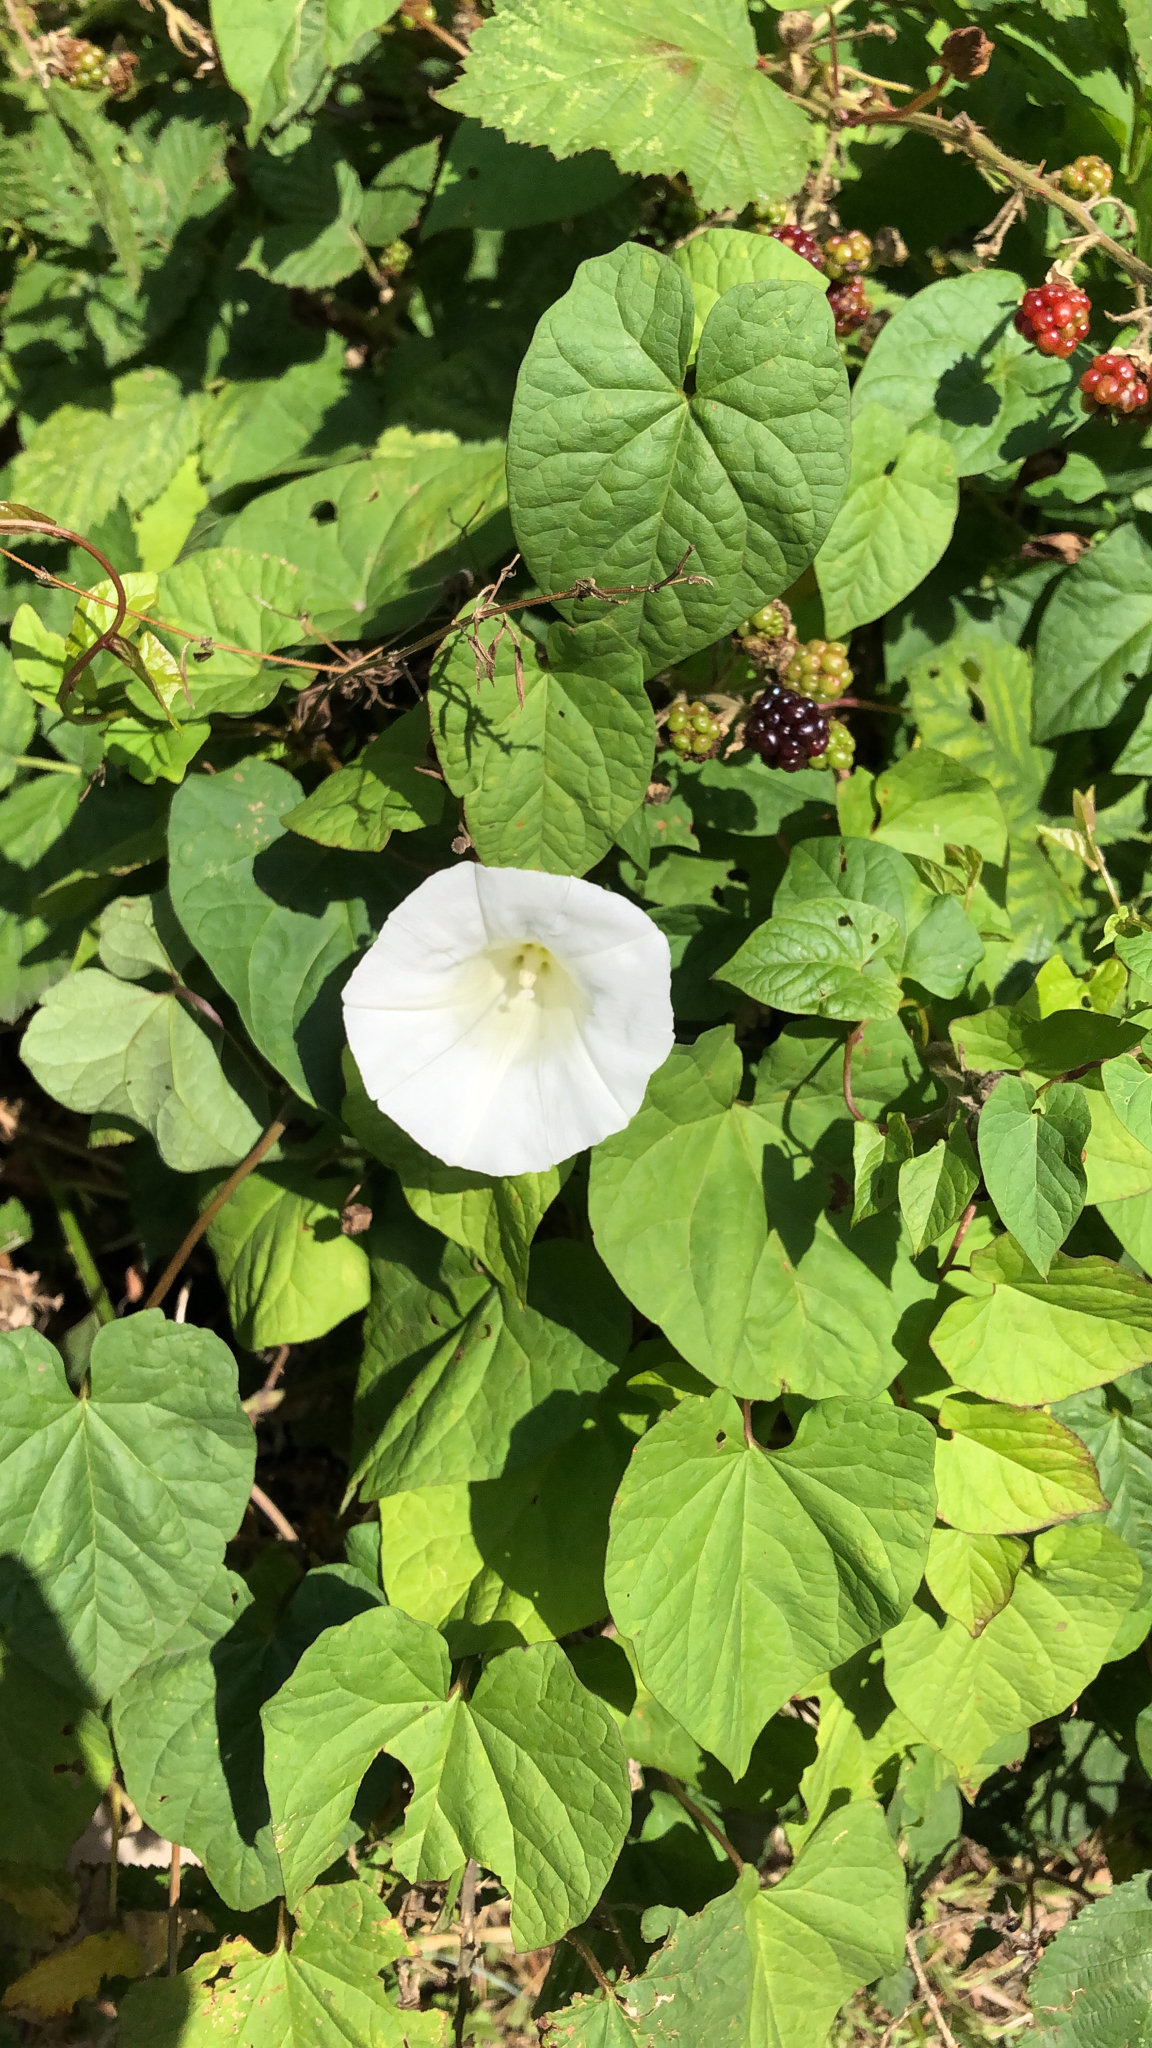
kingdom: Plantae
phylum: Tracheophyta
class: Magnoliopsida
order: Solanales
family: Convolvulaceae
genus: Calystegia
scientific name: Calystegia
